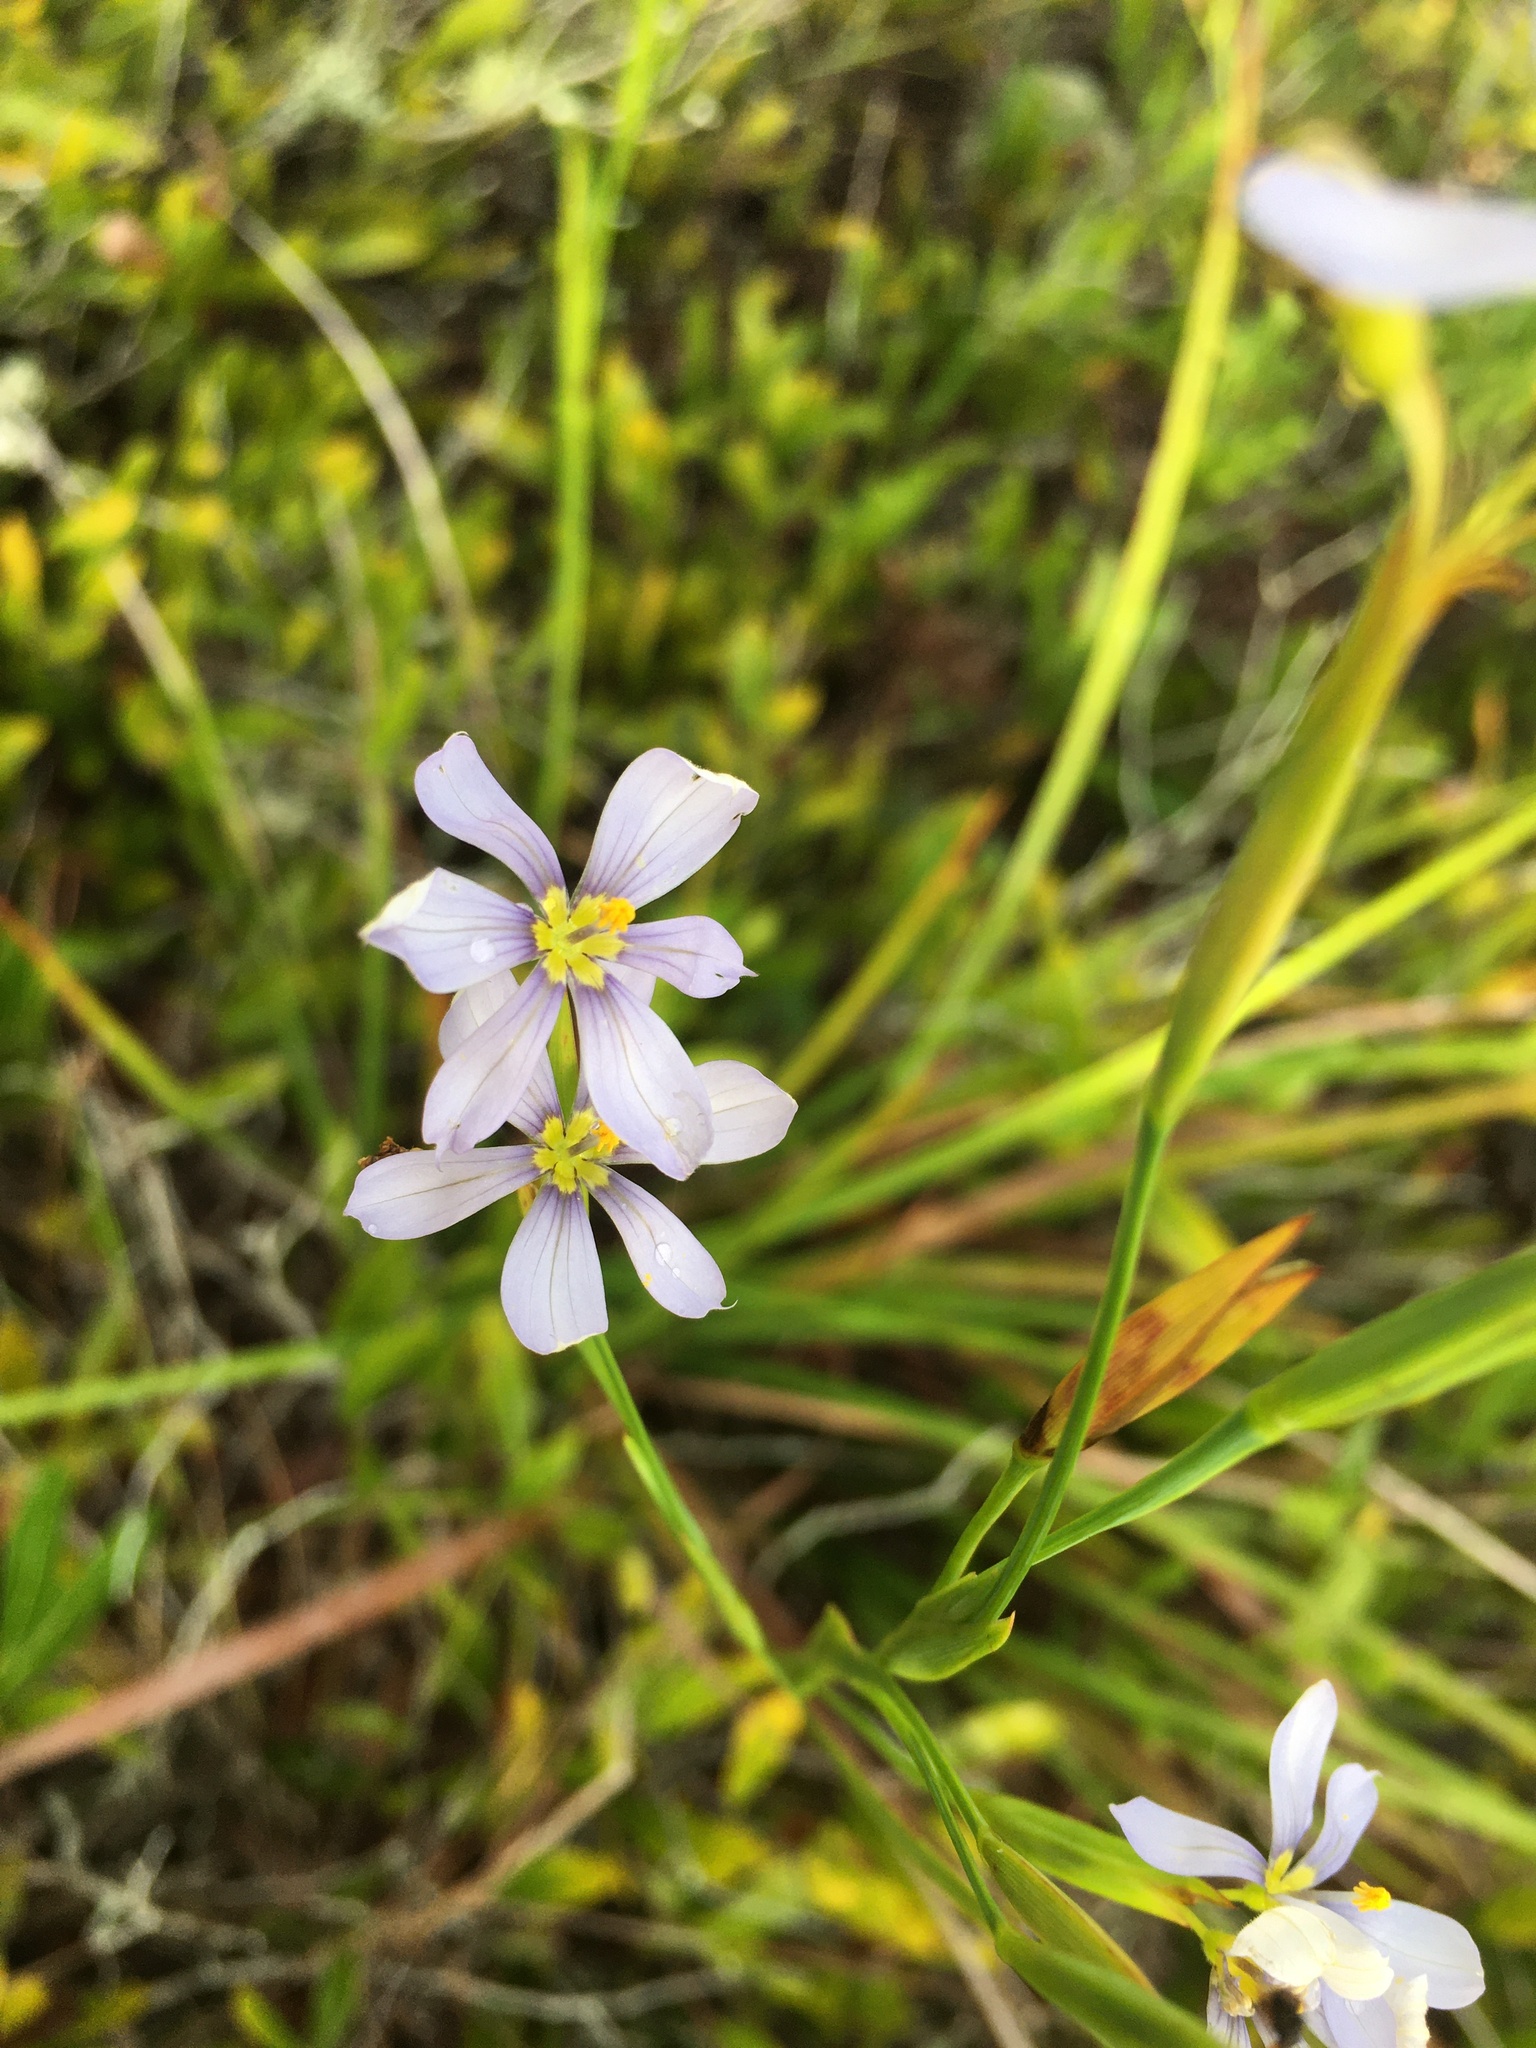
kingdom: Plantae
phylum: Tracheophyta
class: Liliopsida
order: Asparagales
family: Iridaceae
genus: Sisyrinchium
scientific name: Sisyrinchium xerophyllum
